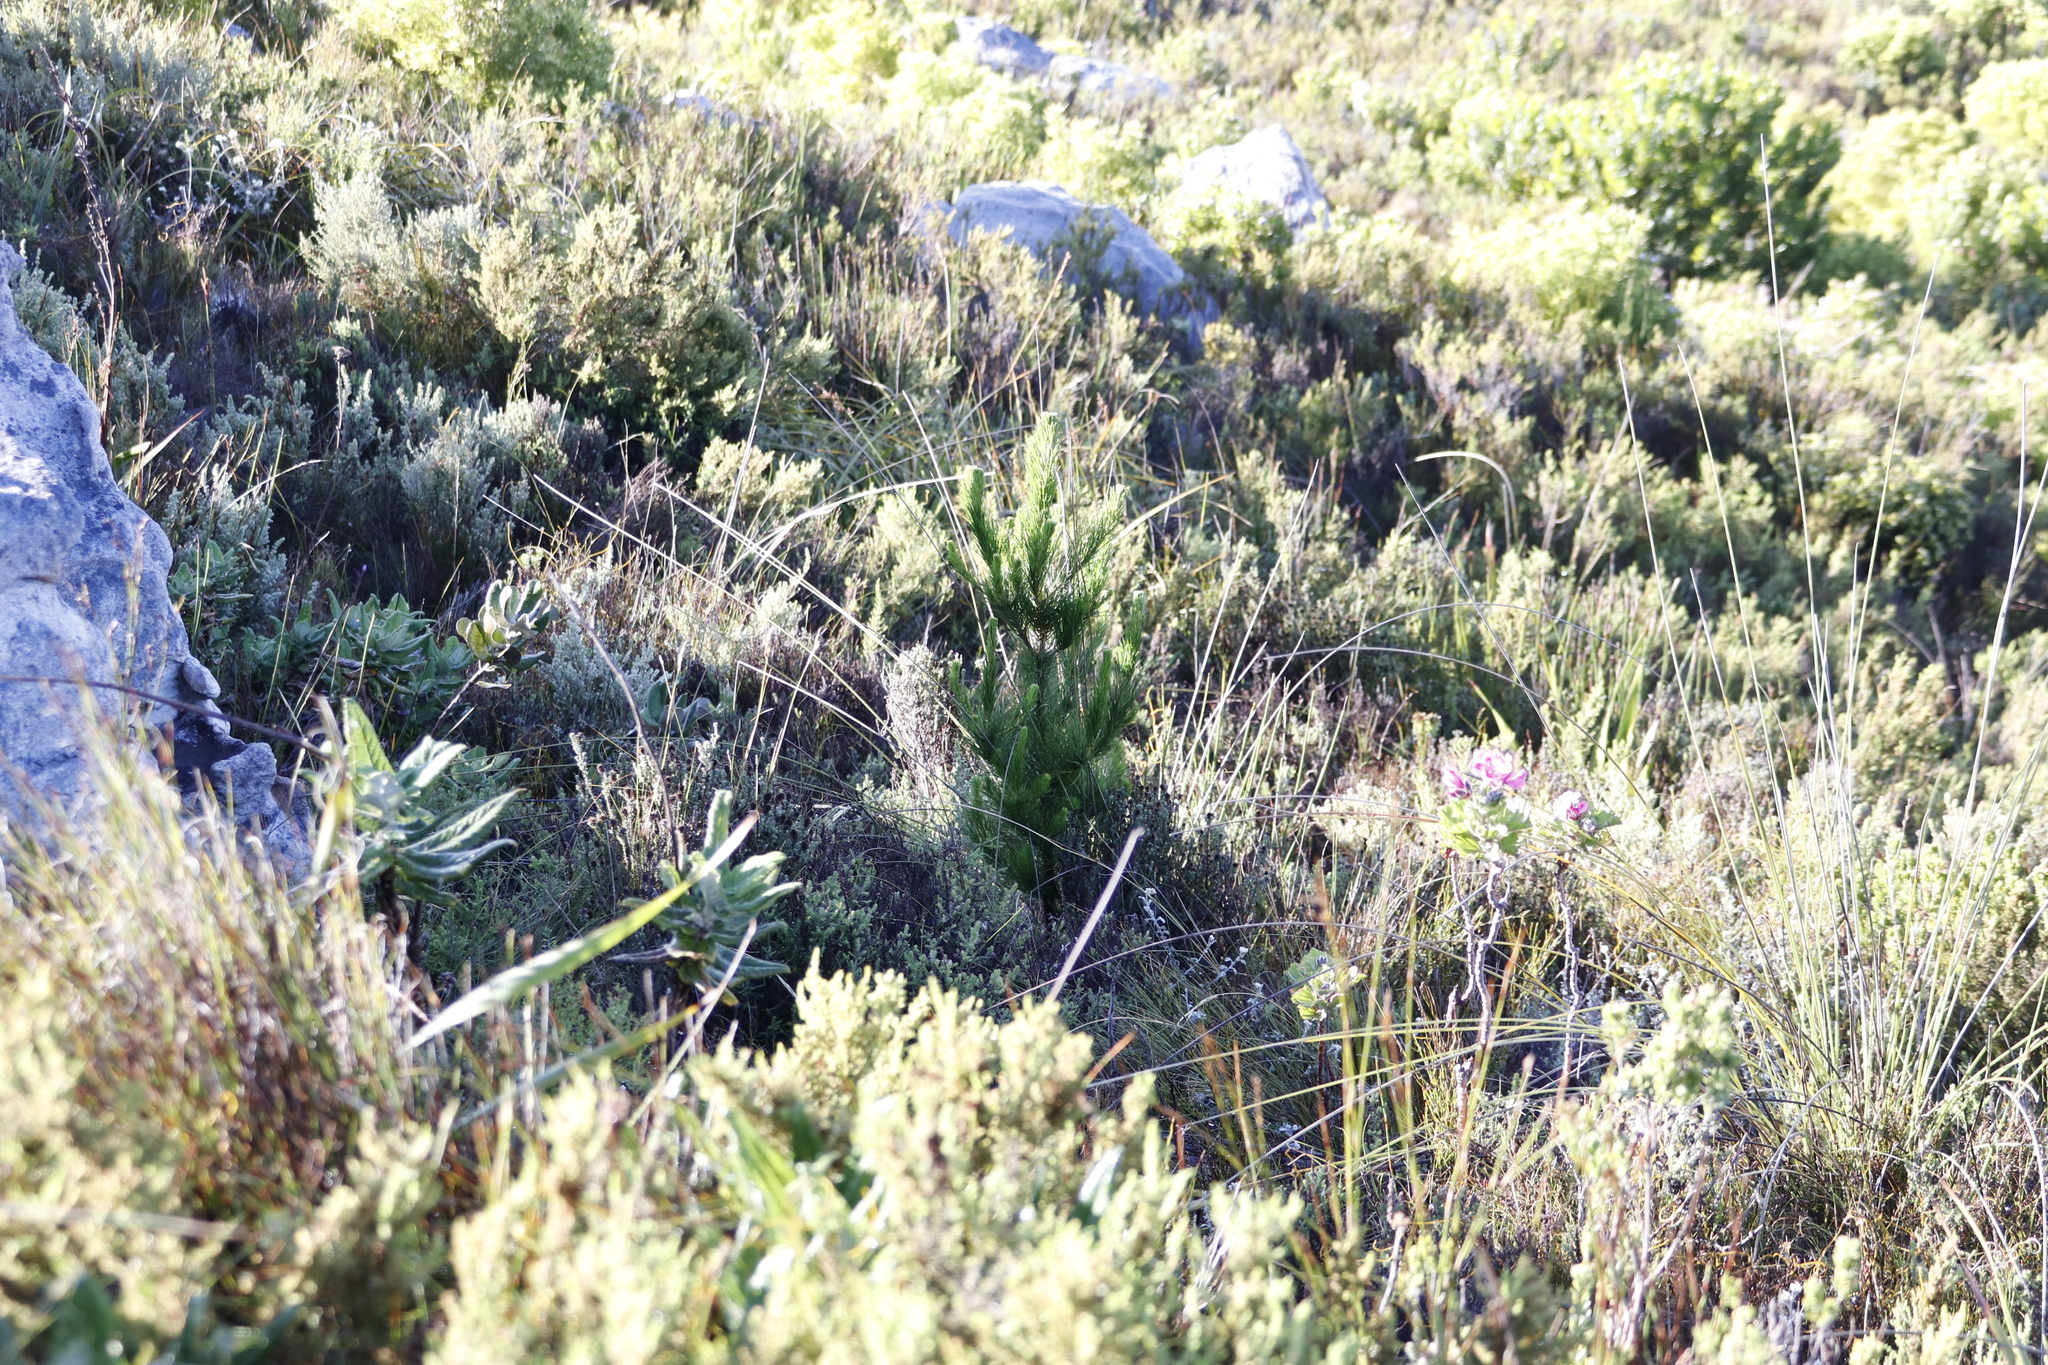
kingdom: Plantae
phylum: Tracheophyta
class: Pinopsida
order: Pinales
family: Pinaceae
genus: Pinus
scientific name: Pinus radiata
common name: Monterey pine
